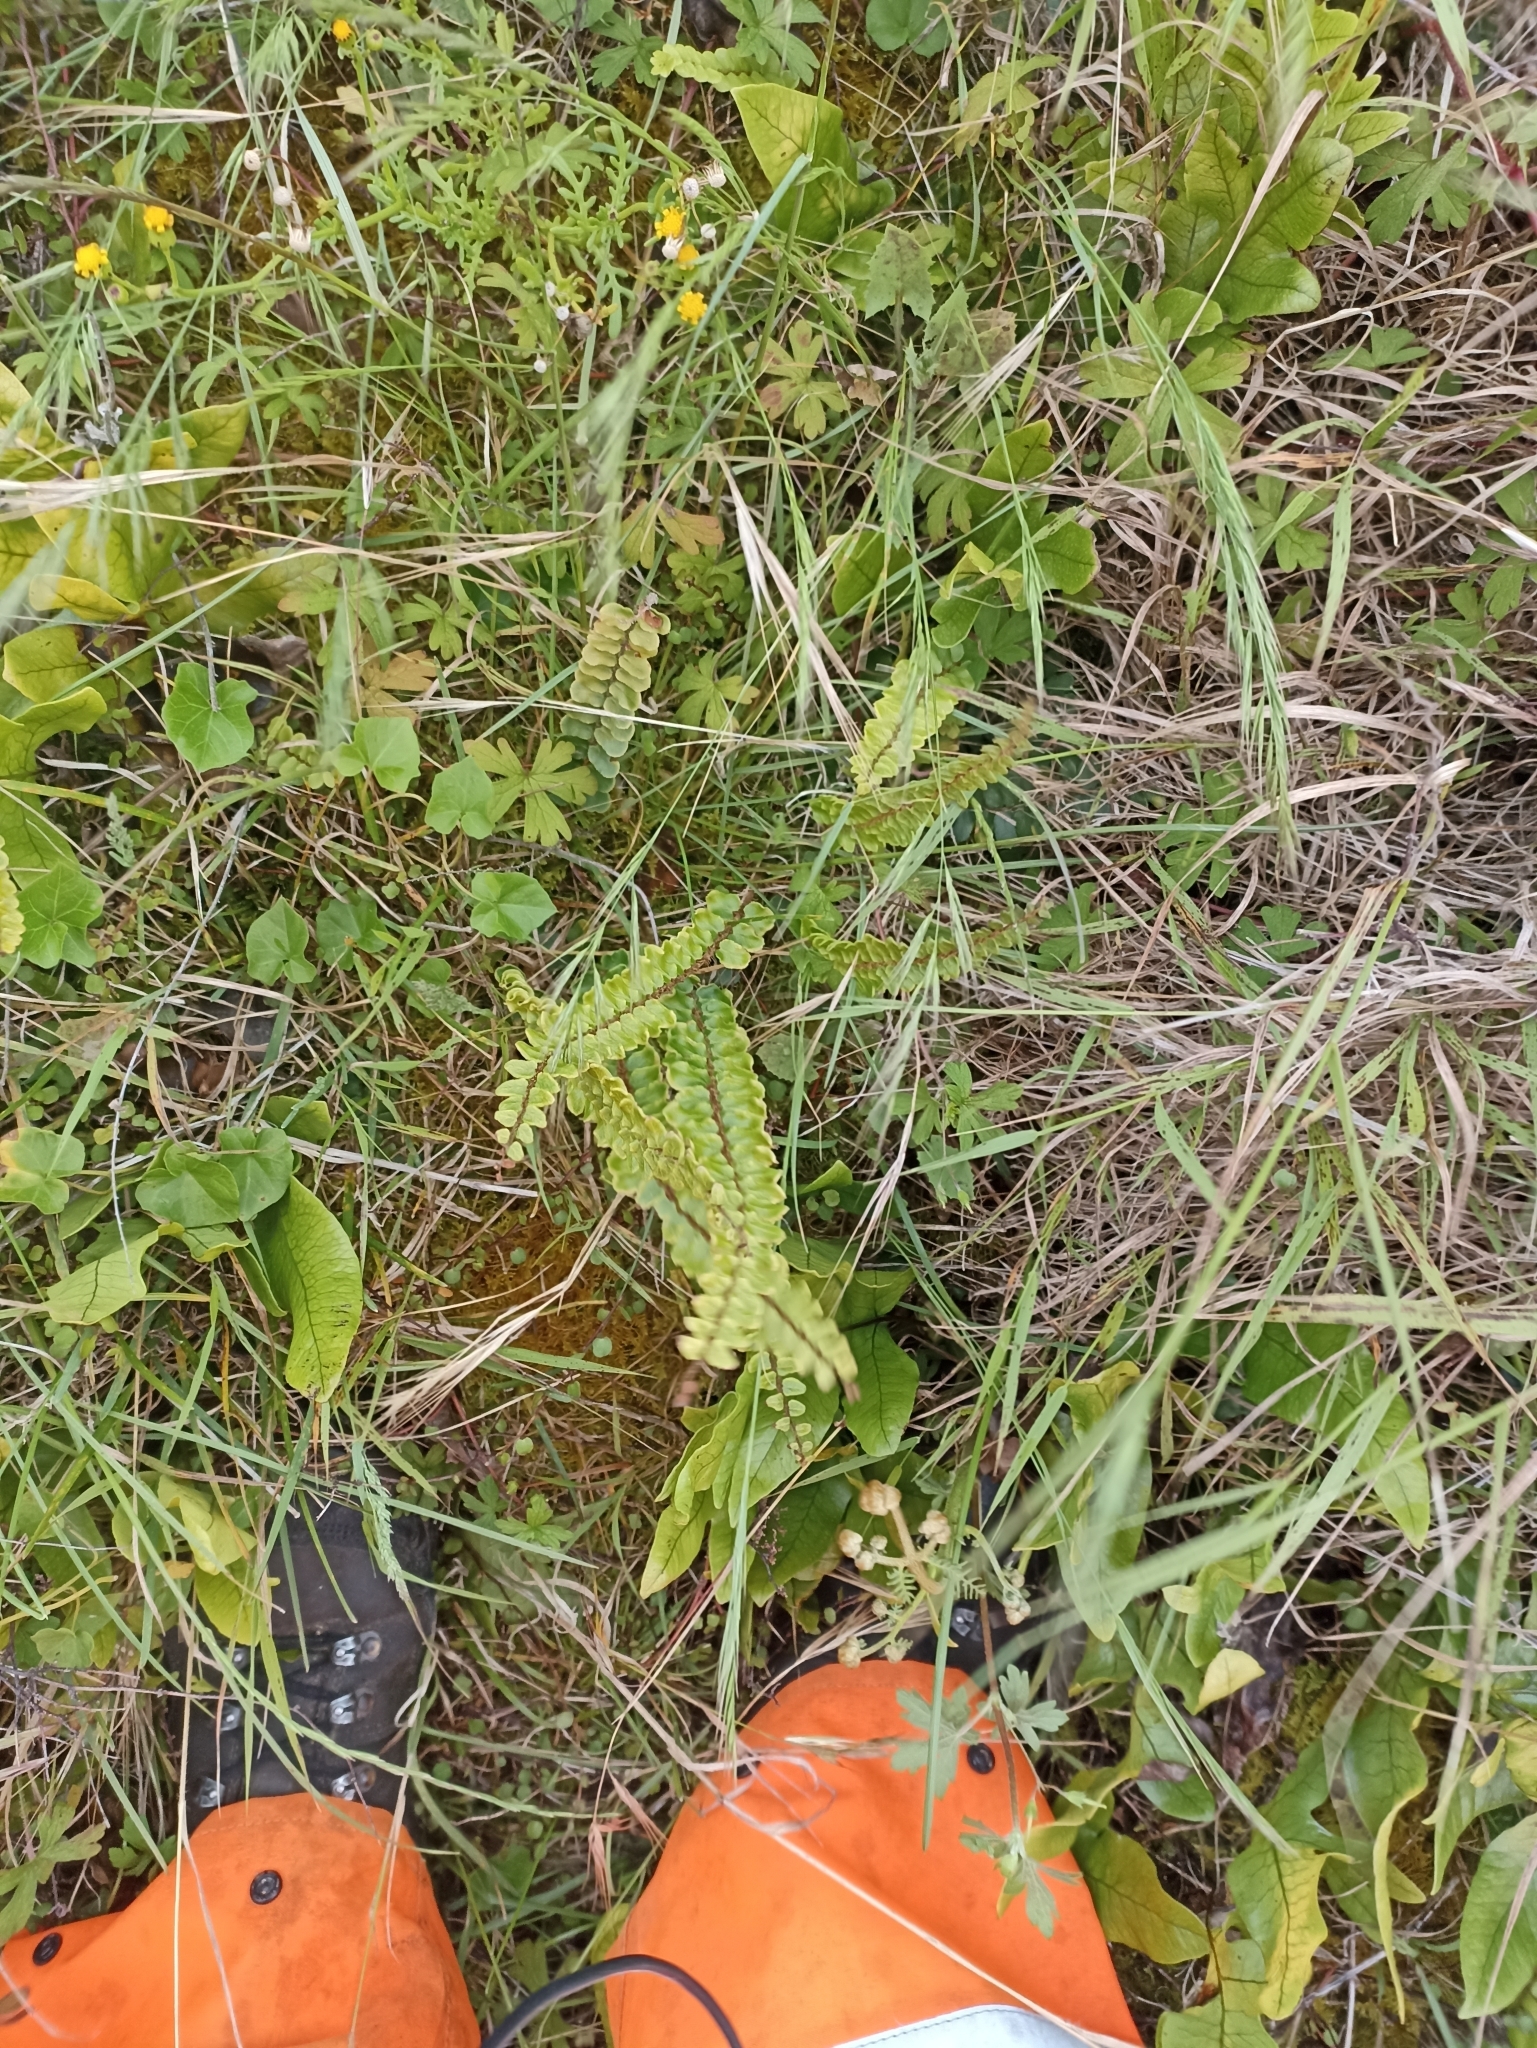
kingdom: Plantae
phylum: Tracheophyta
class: Polypodiopsida
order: Polypodiales
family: Pteridaceae
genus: Pellaea
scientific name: Pellaea rotundifolia
